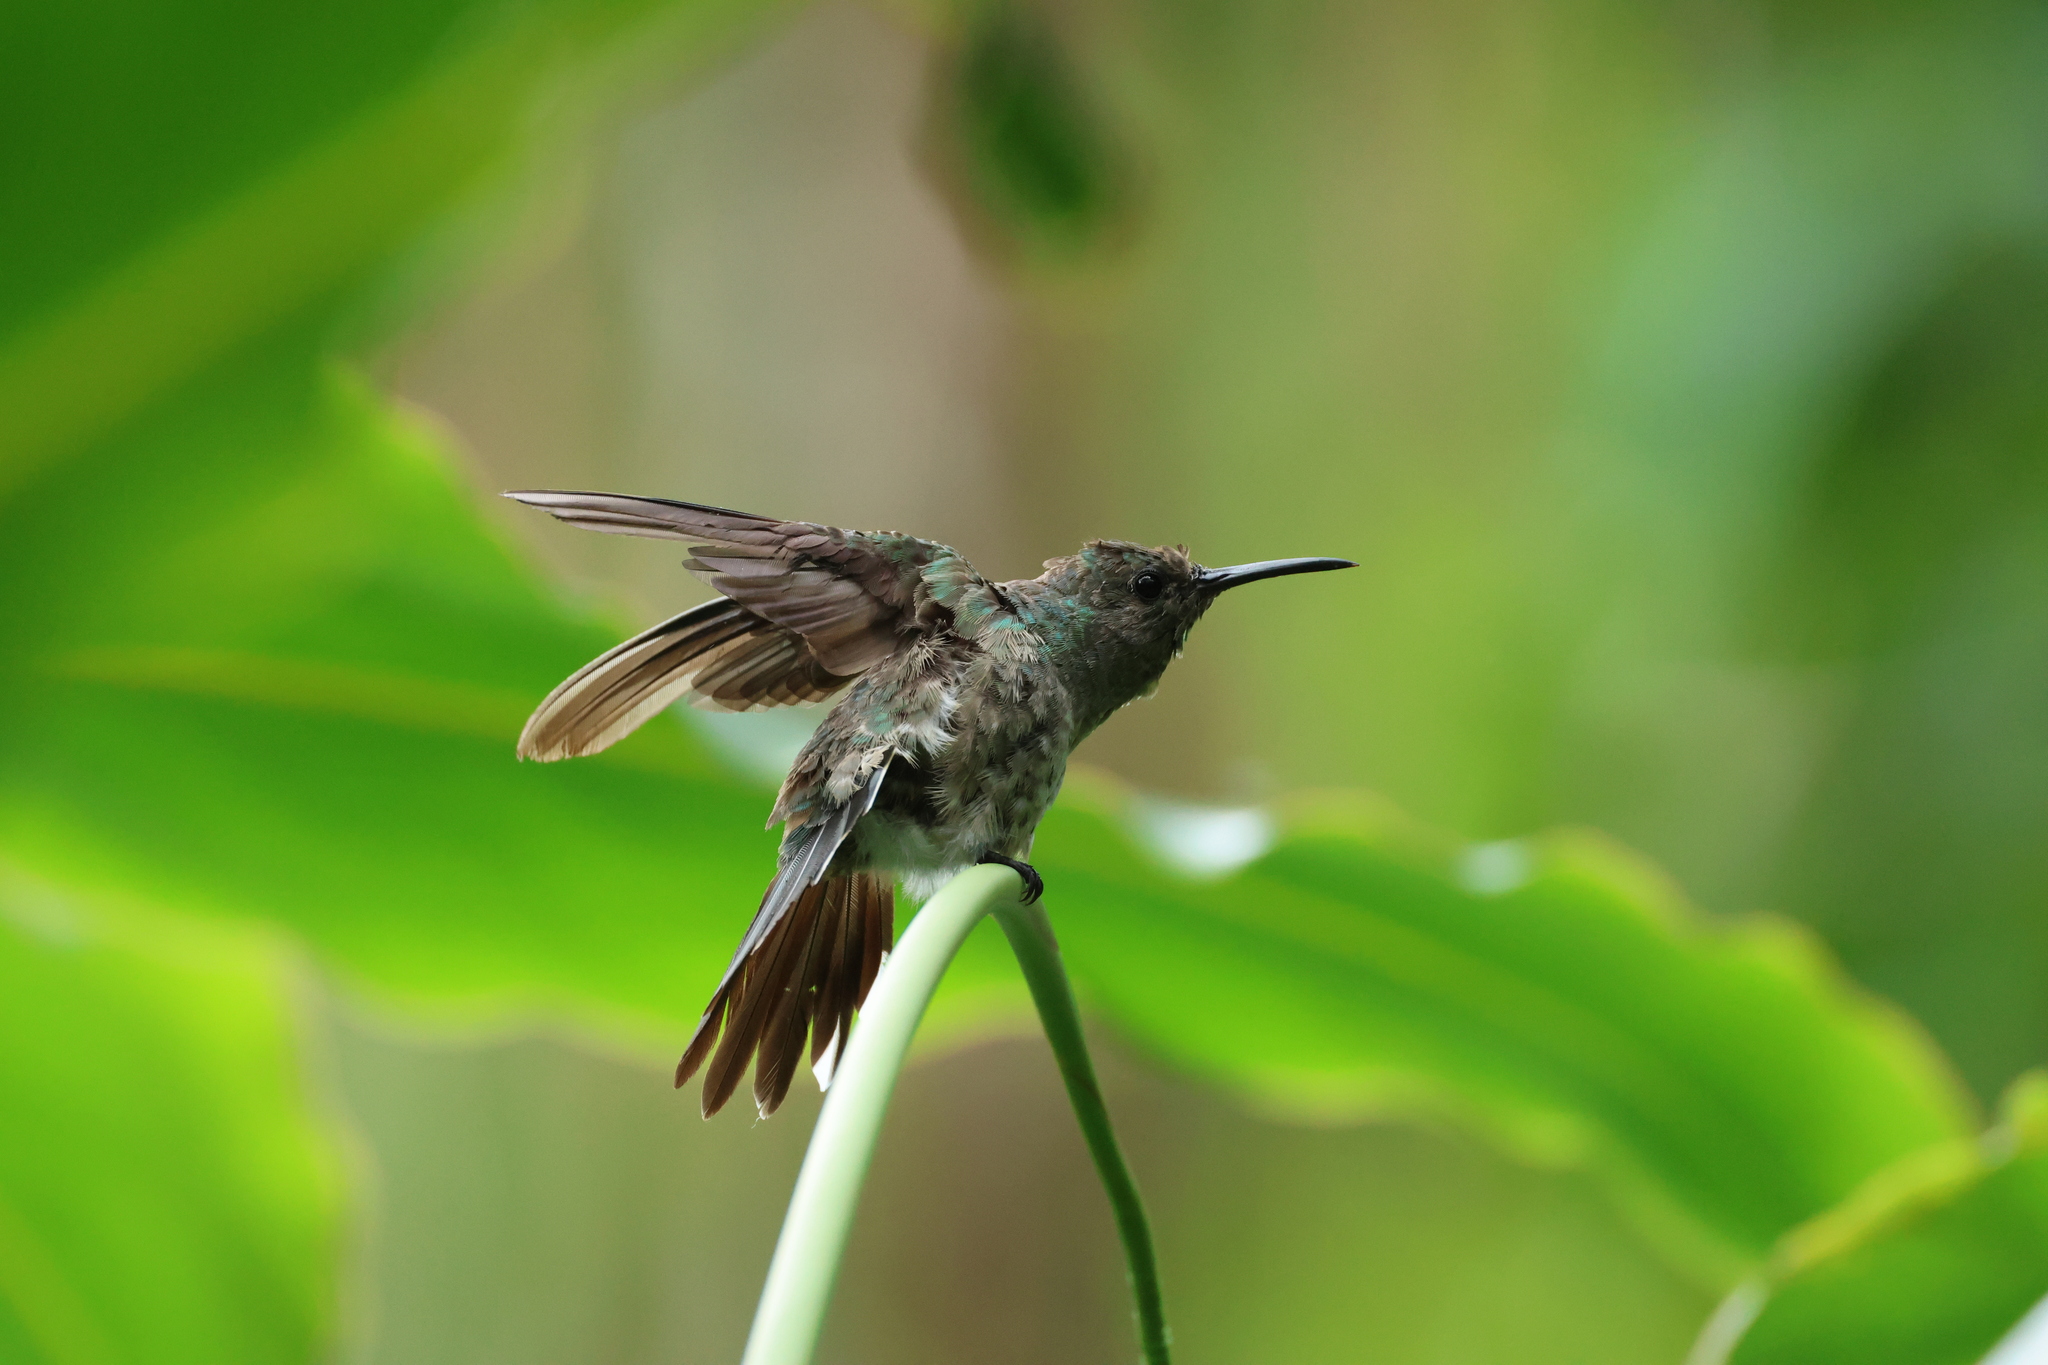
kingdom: Animalia
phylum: Chordata
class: Aves
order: Apodiformes
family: Trochilidae
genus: Phaeochroa
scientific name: Phaeochroa cuvierii
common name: Scaly-breasted hummingbird
